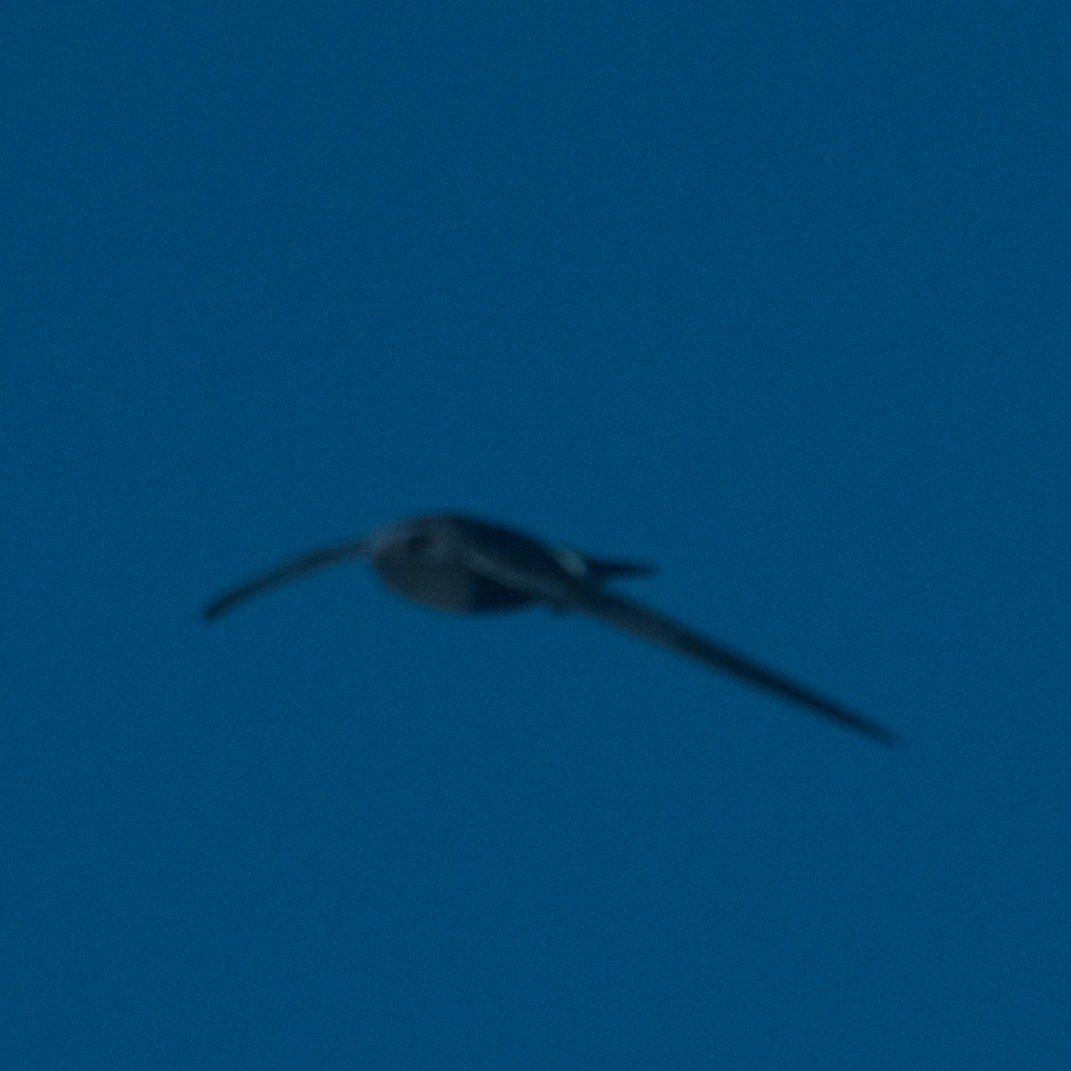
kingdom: Animalia
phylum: Chordata
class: Aves
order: Apodiformes
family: Apodidae
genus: Aeronautes
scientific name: Aeronautes saxatalis
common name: White-throated swift
